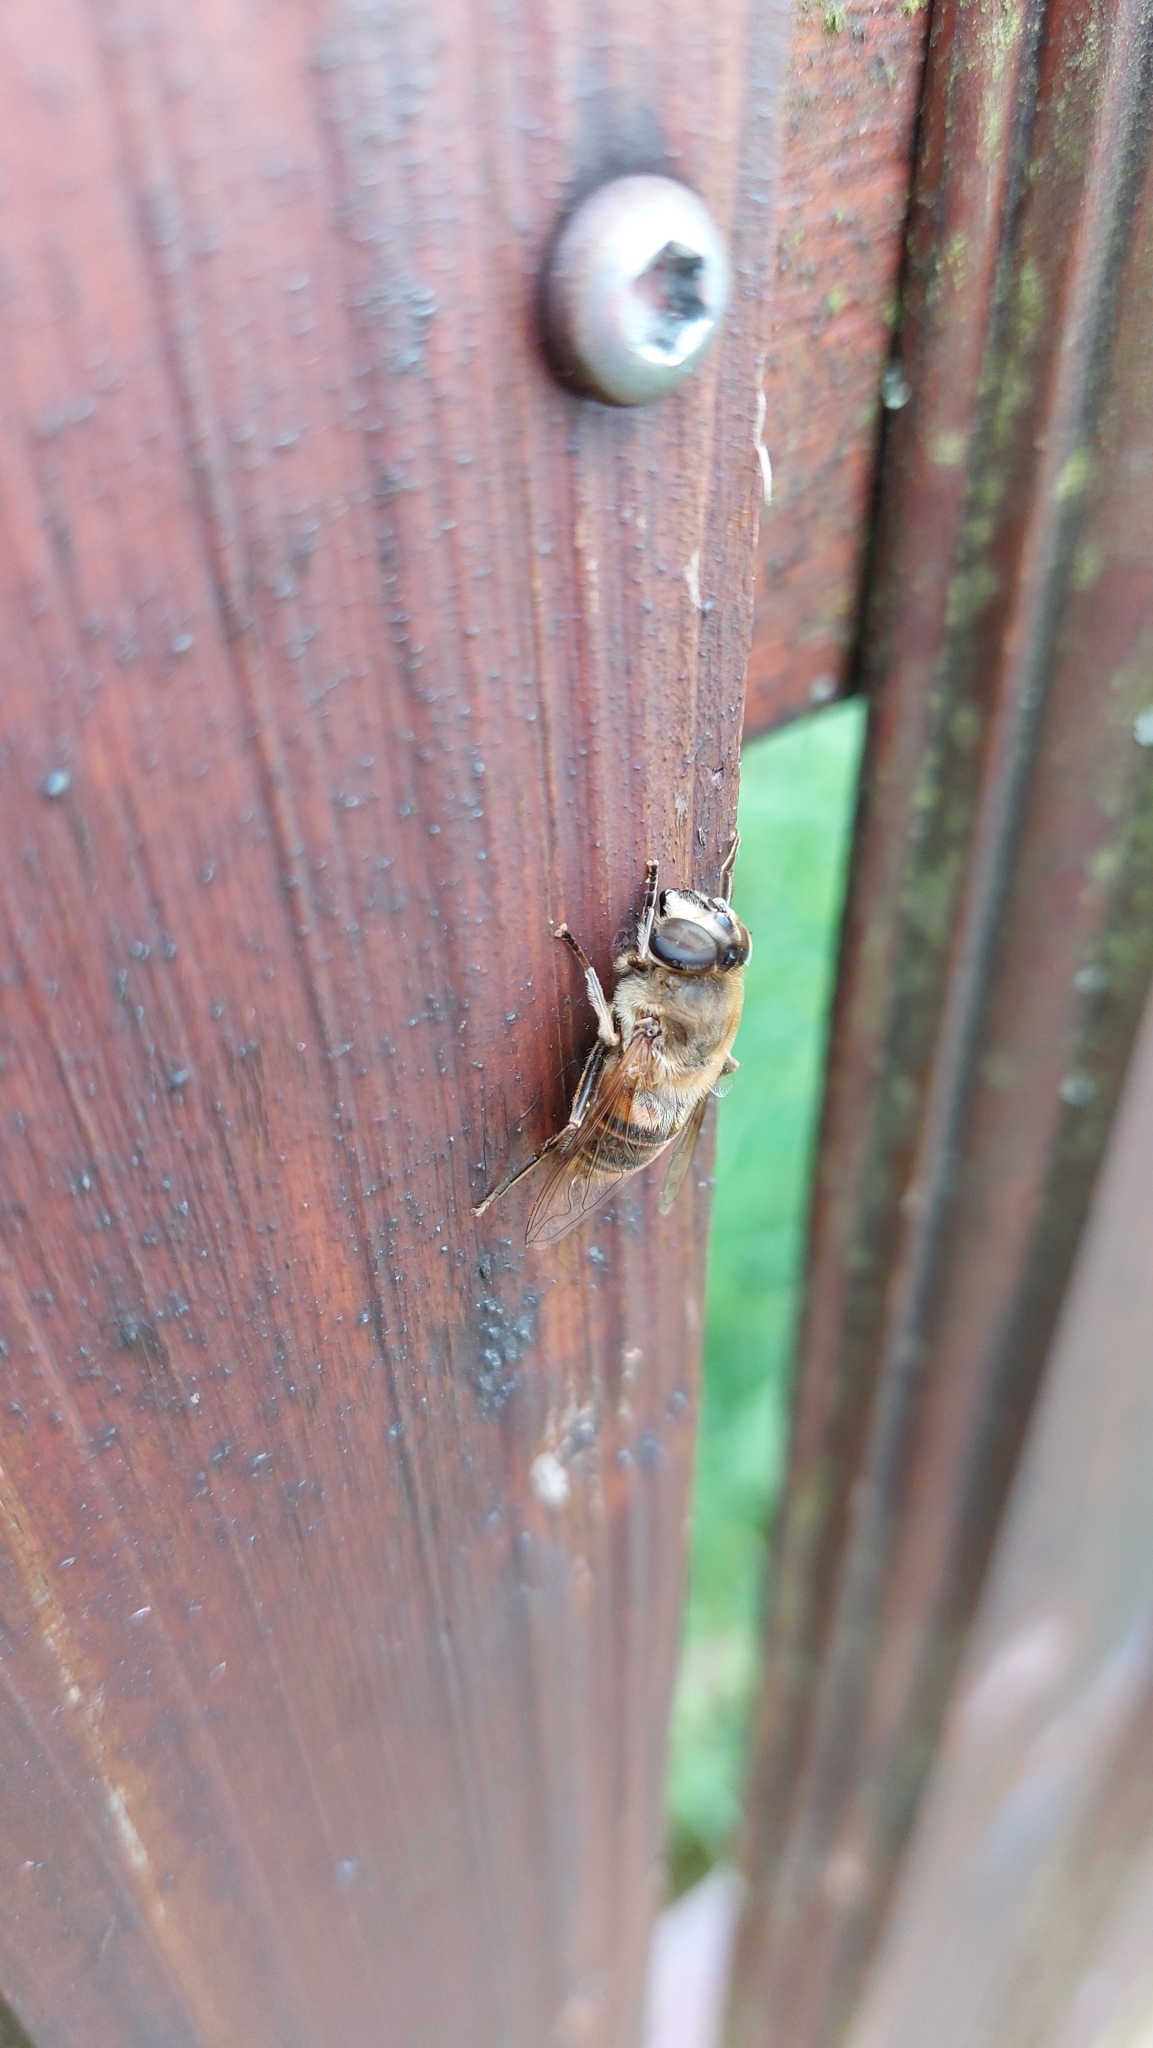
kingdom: Animalia
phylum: Arthropoda
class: Insecta
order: Diptera
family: Syrphidae
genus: Eristalis
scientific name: Eristalis tenax
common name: Drone fly
